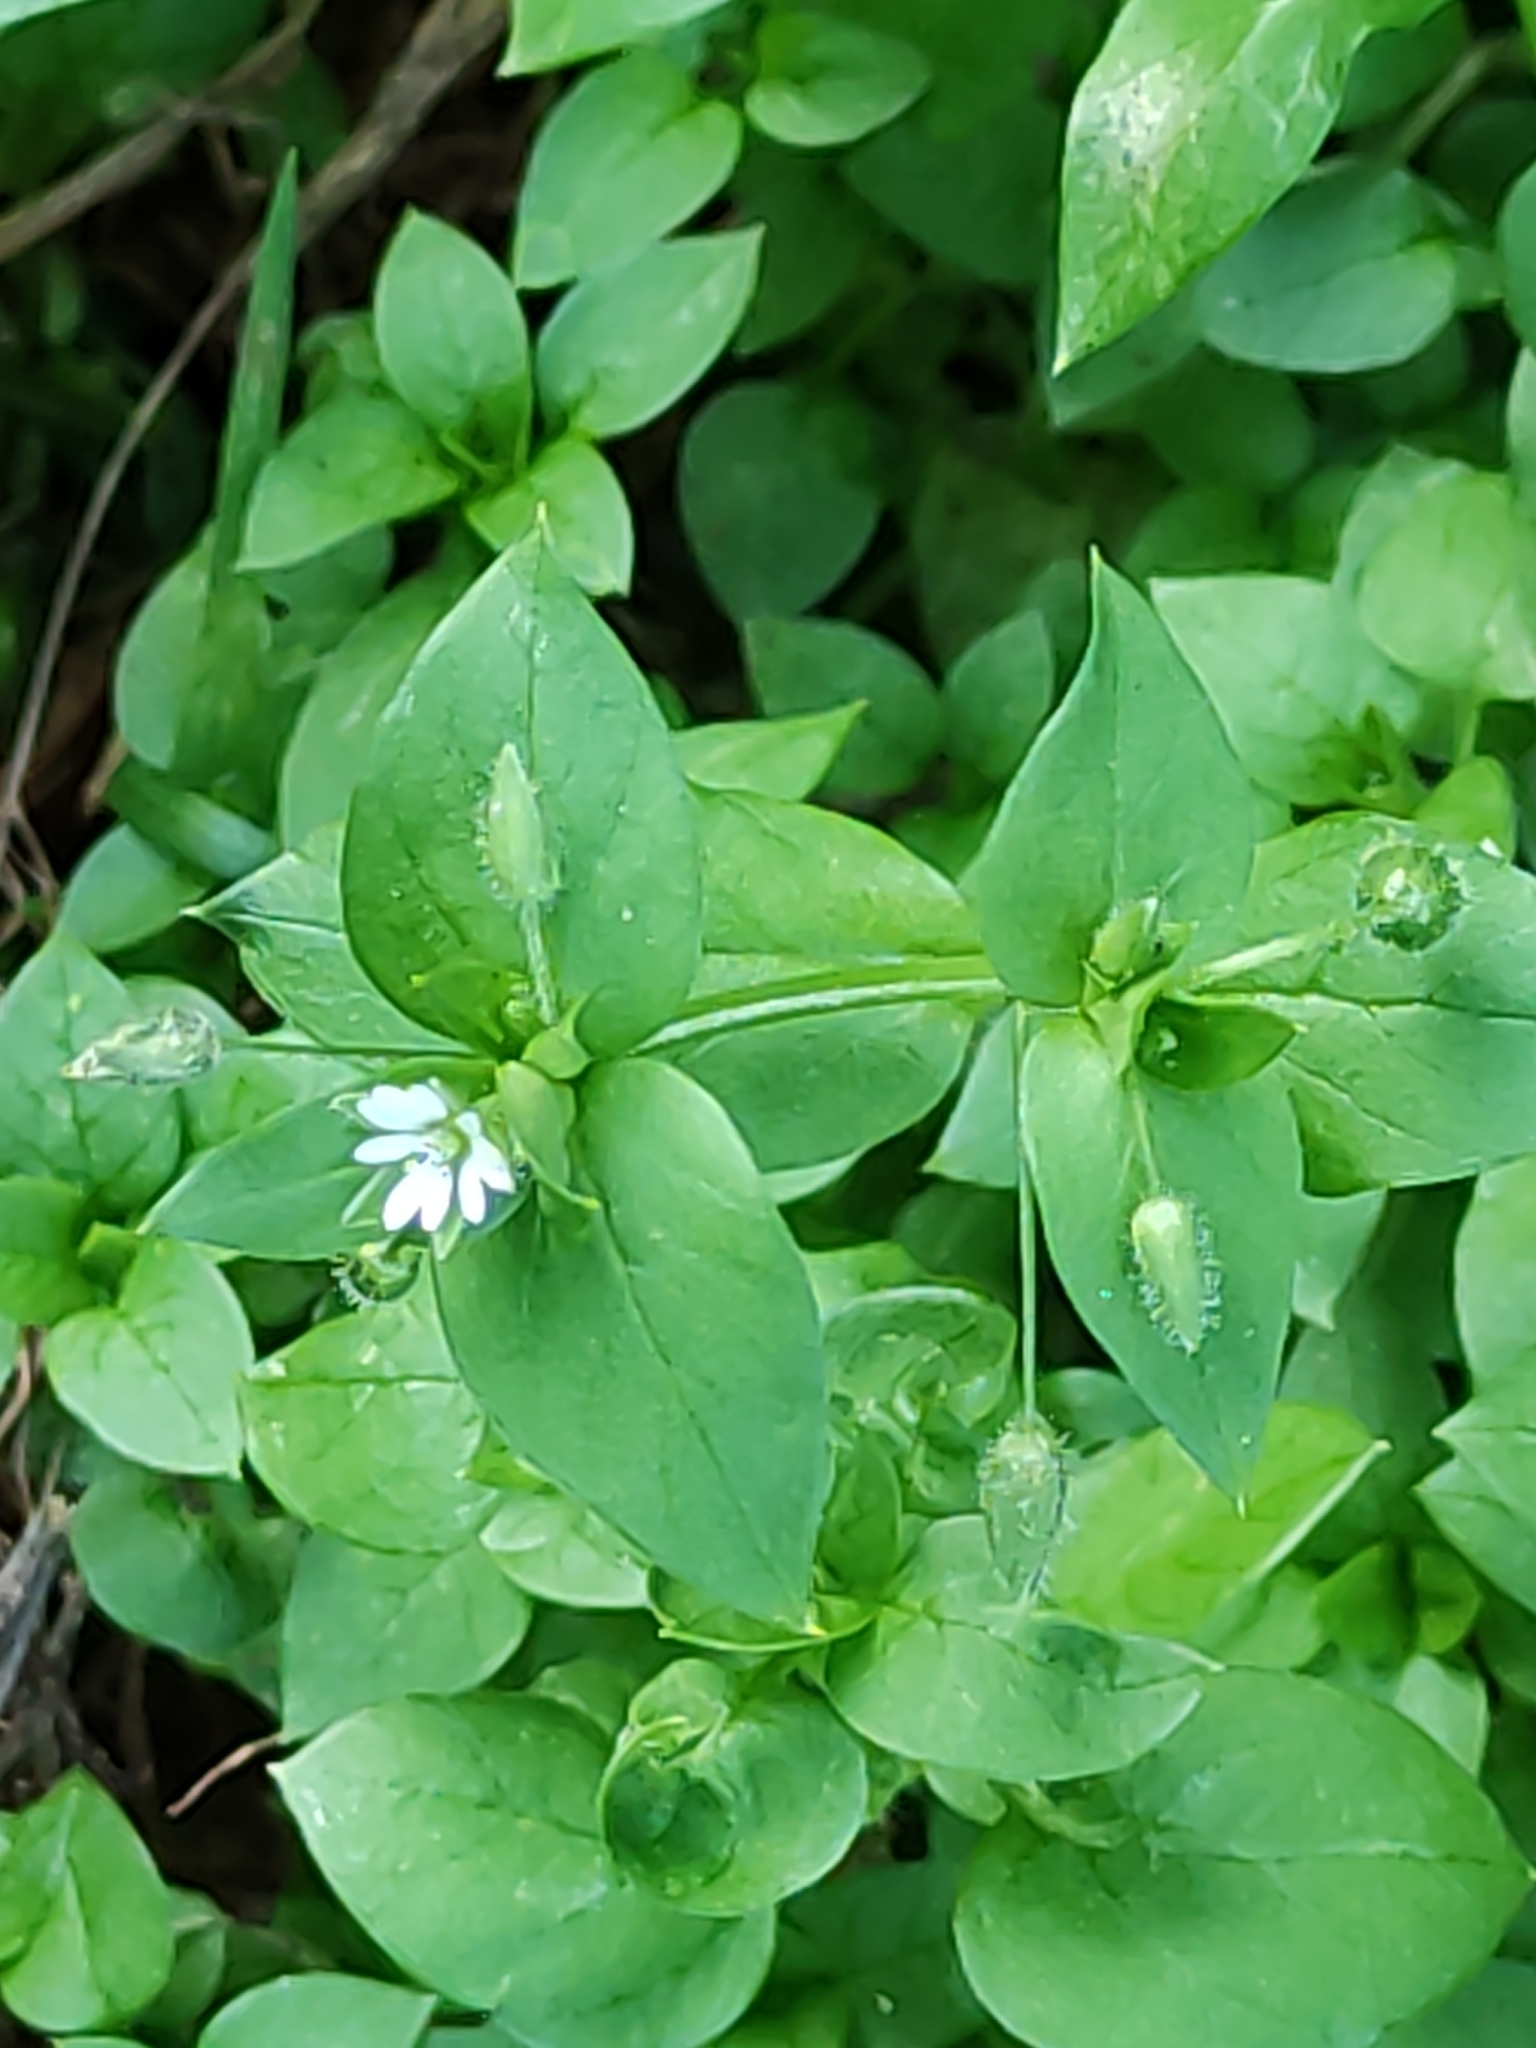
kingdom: Plantae
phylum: Tracheophyta
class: Magnoliopsida
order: Caryophyllales
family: Caryophyllaceae
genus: Stellaria
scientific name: Stellaria media
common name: Common chickweed
